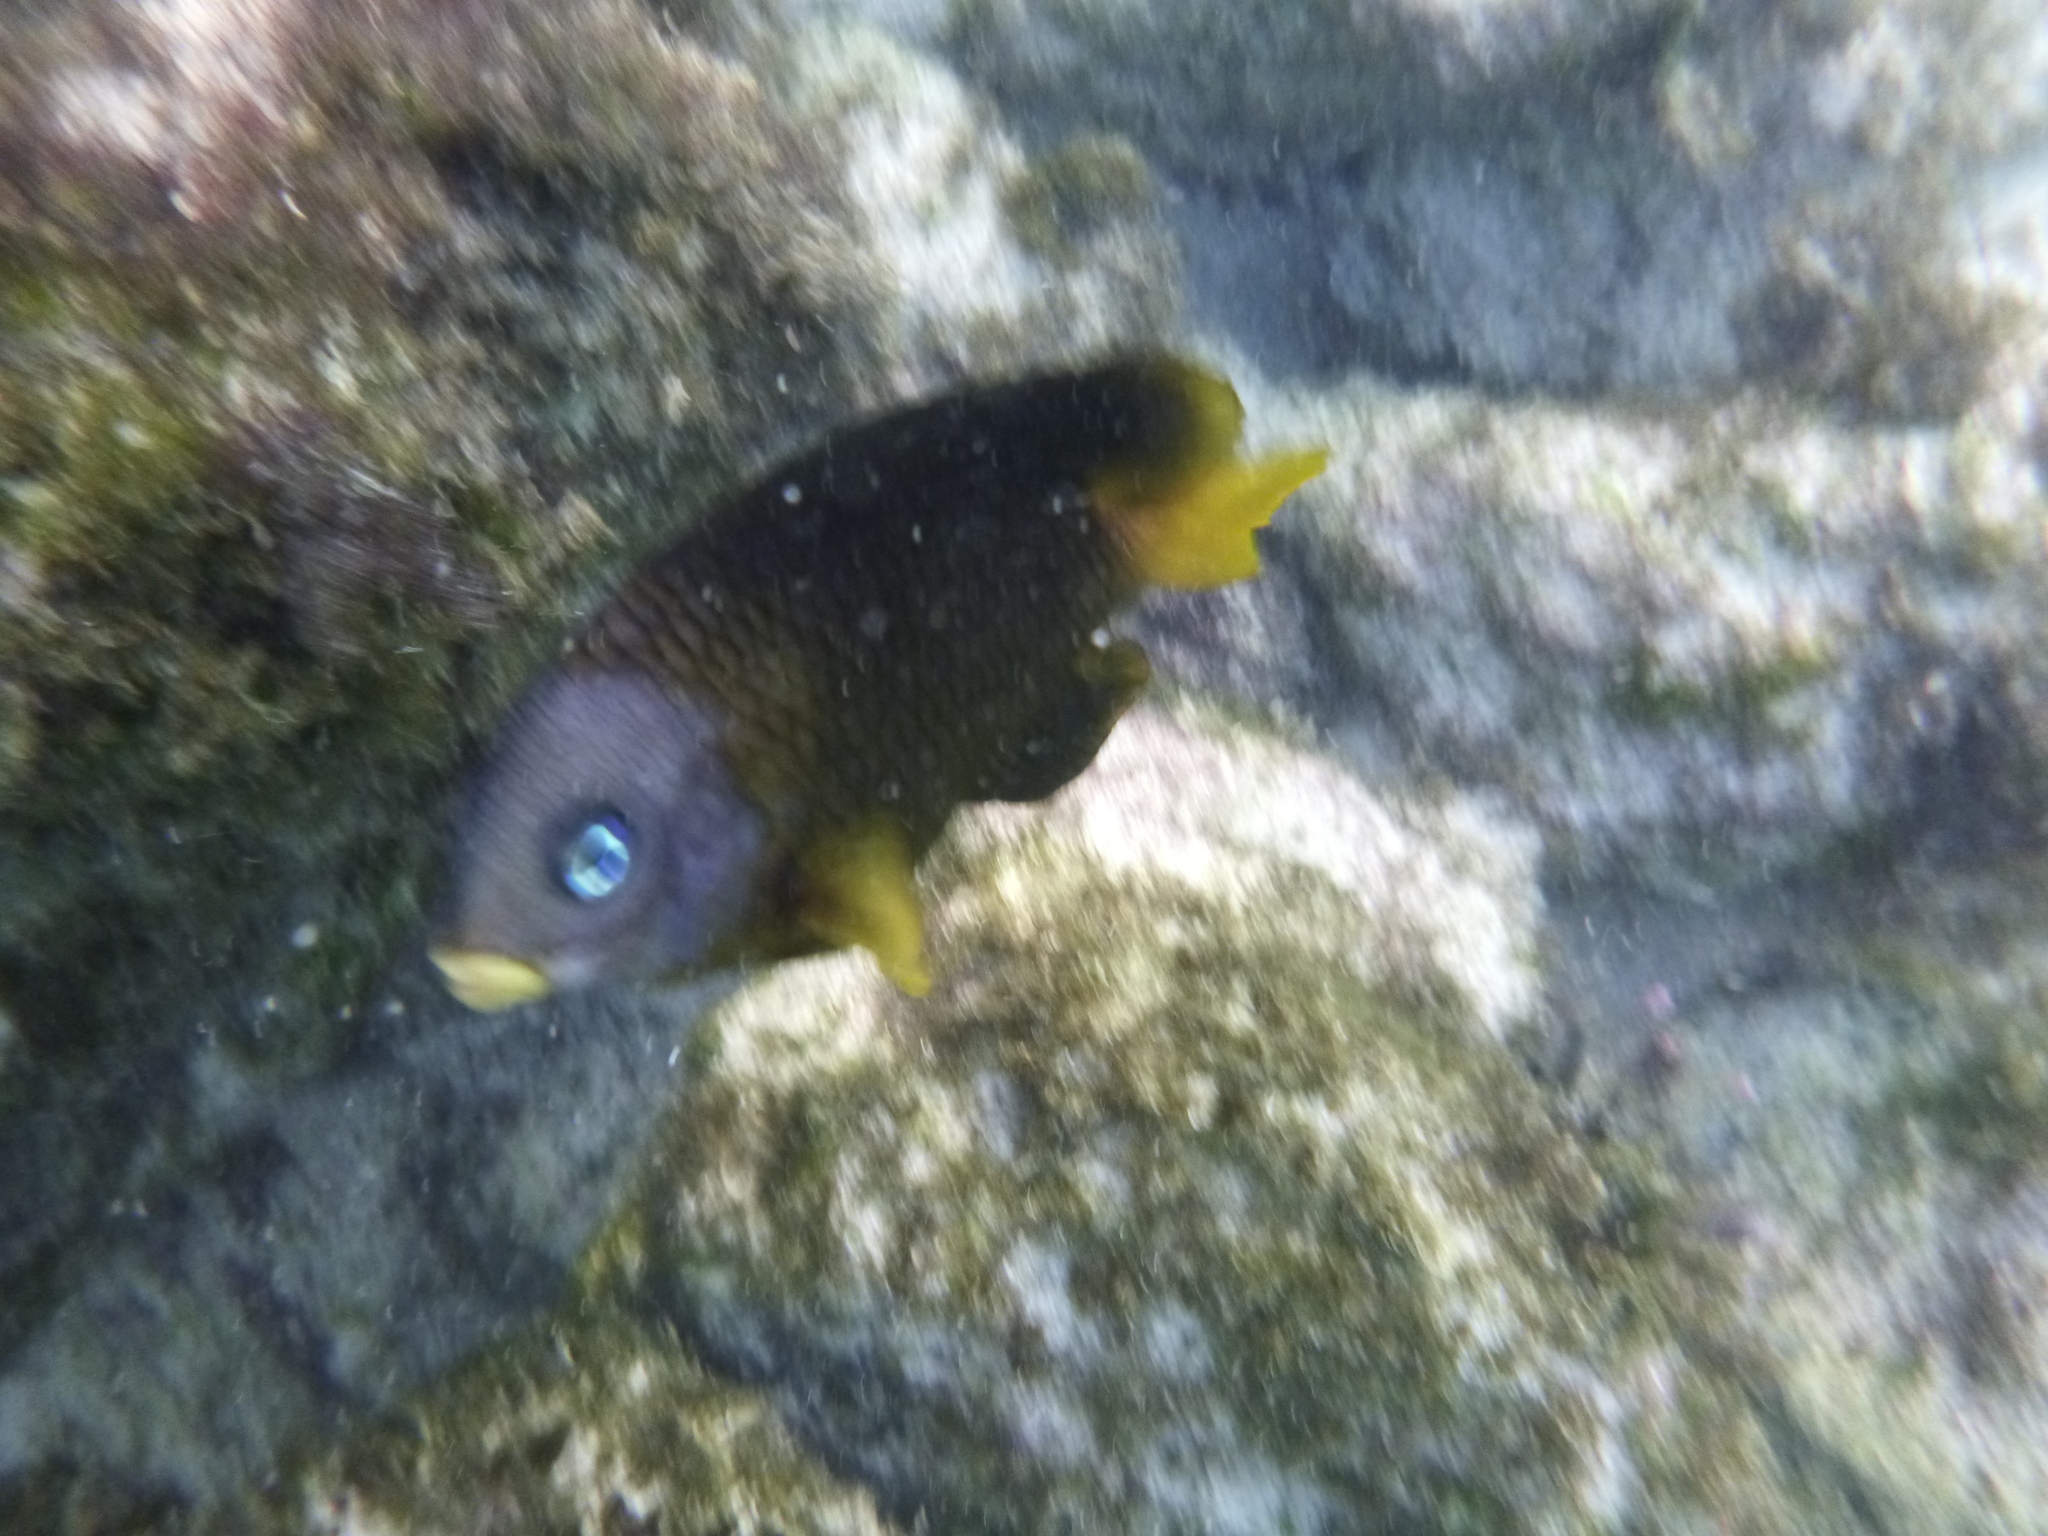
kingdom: Animalia
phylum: Chordata
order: Perciformes
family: Pomacentridae
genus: Stegastes
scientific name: Stegastes arcifrons
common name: Galapagos gregory
